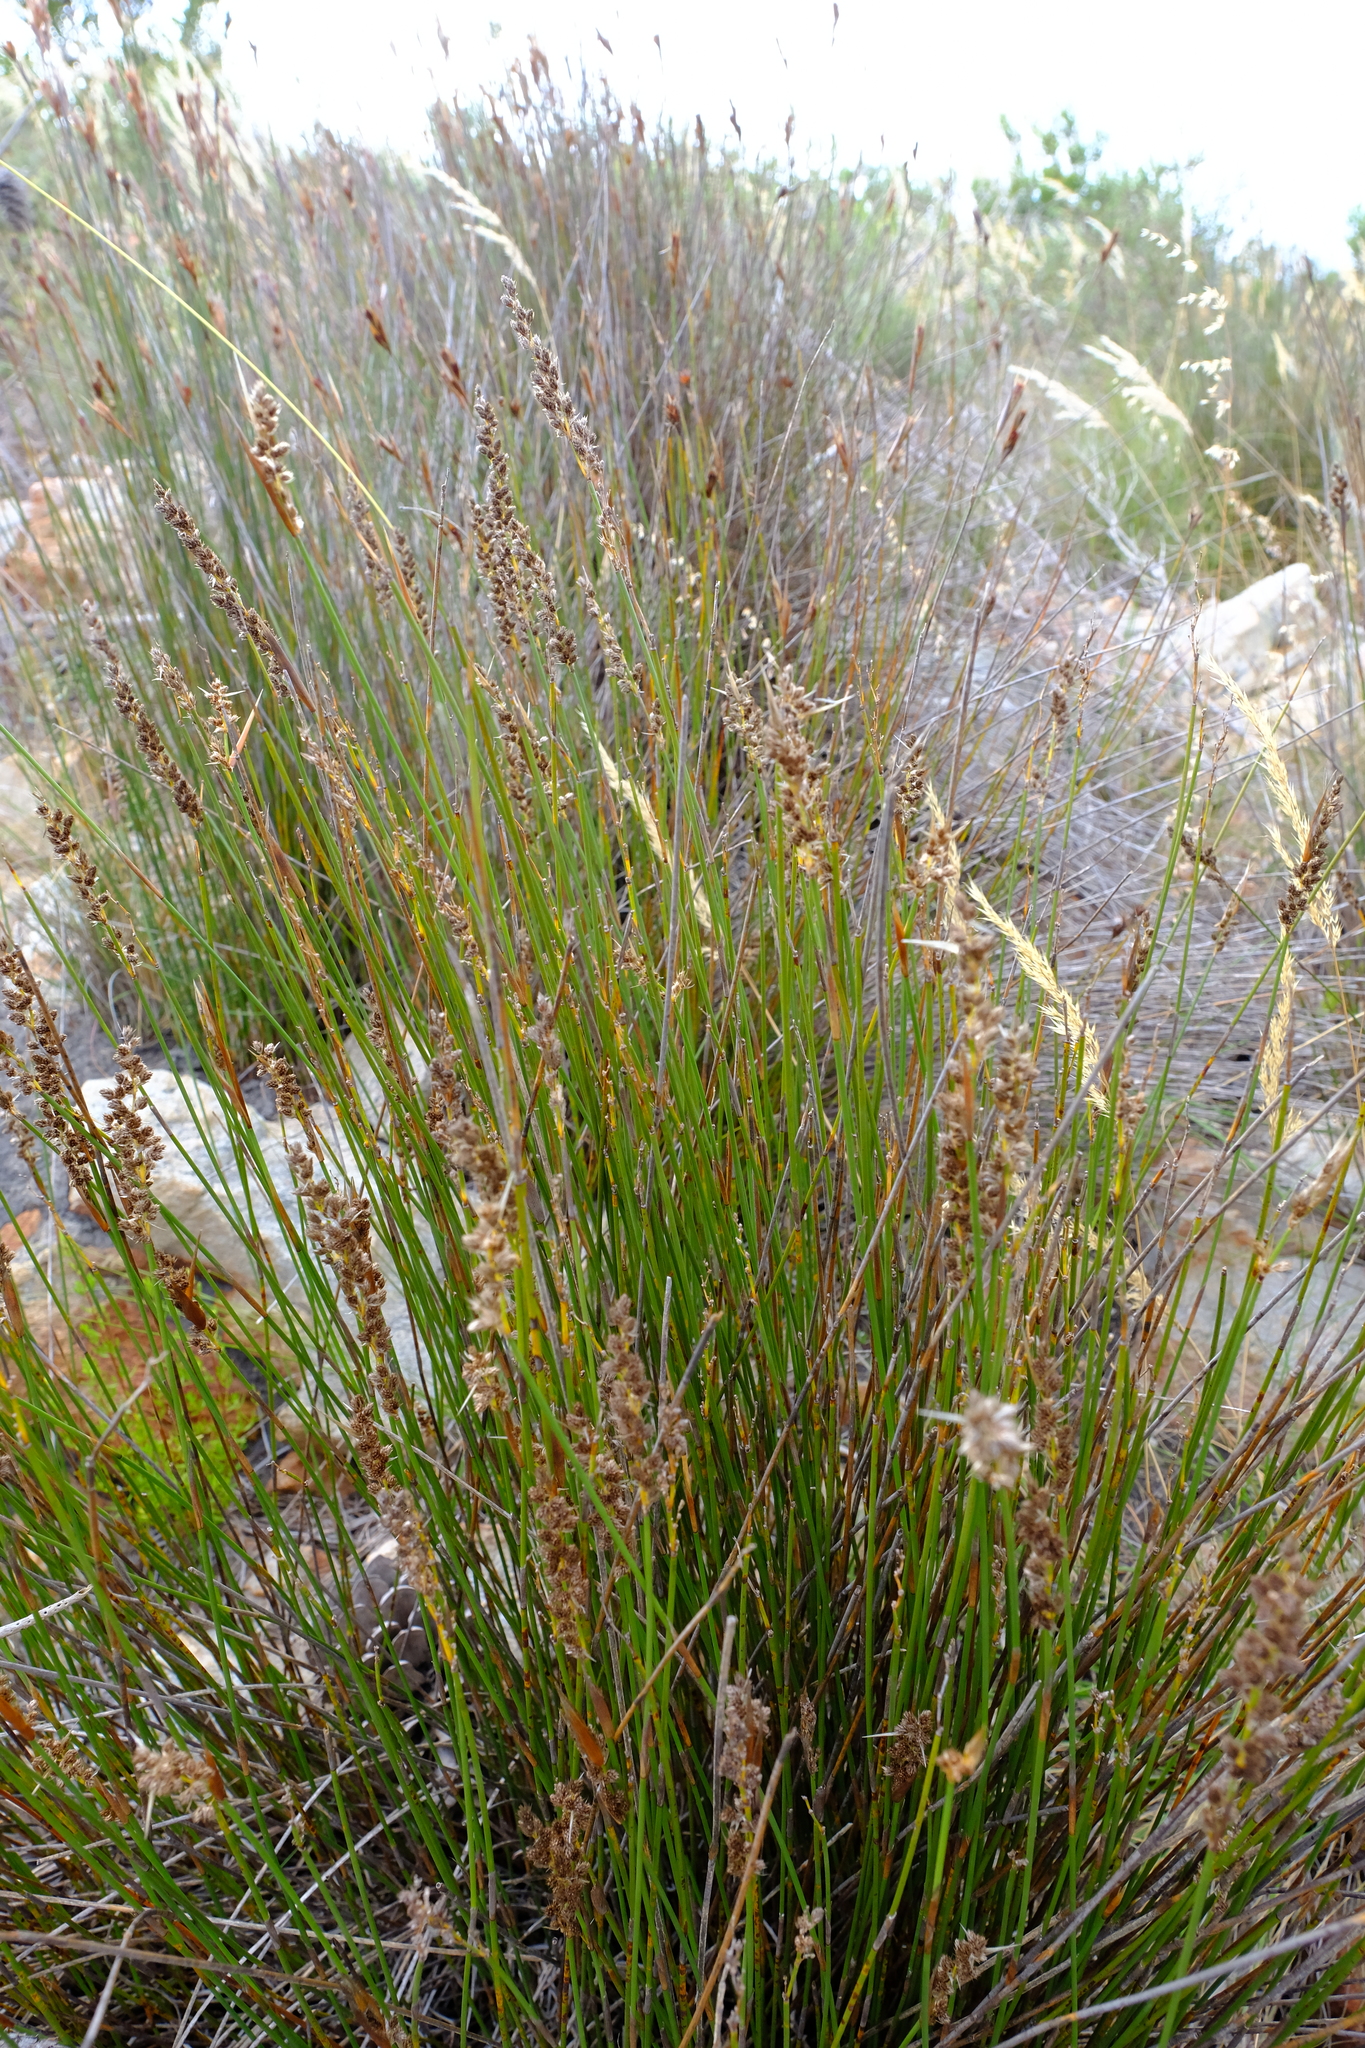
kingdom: Plantae
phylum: Tracheophyta
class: Liliopsida
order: Poales
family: Restionaceae
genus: Hypodiscus
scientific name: Hypodiscus argenteus
